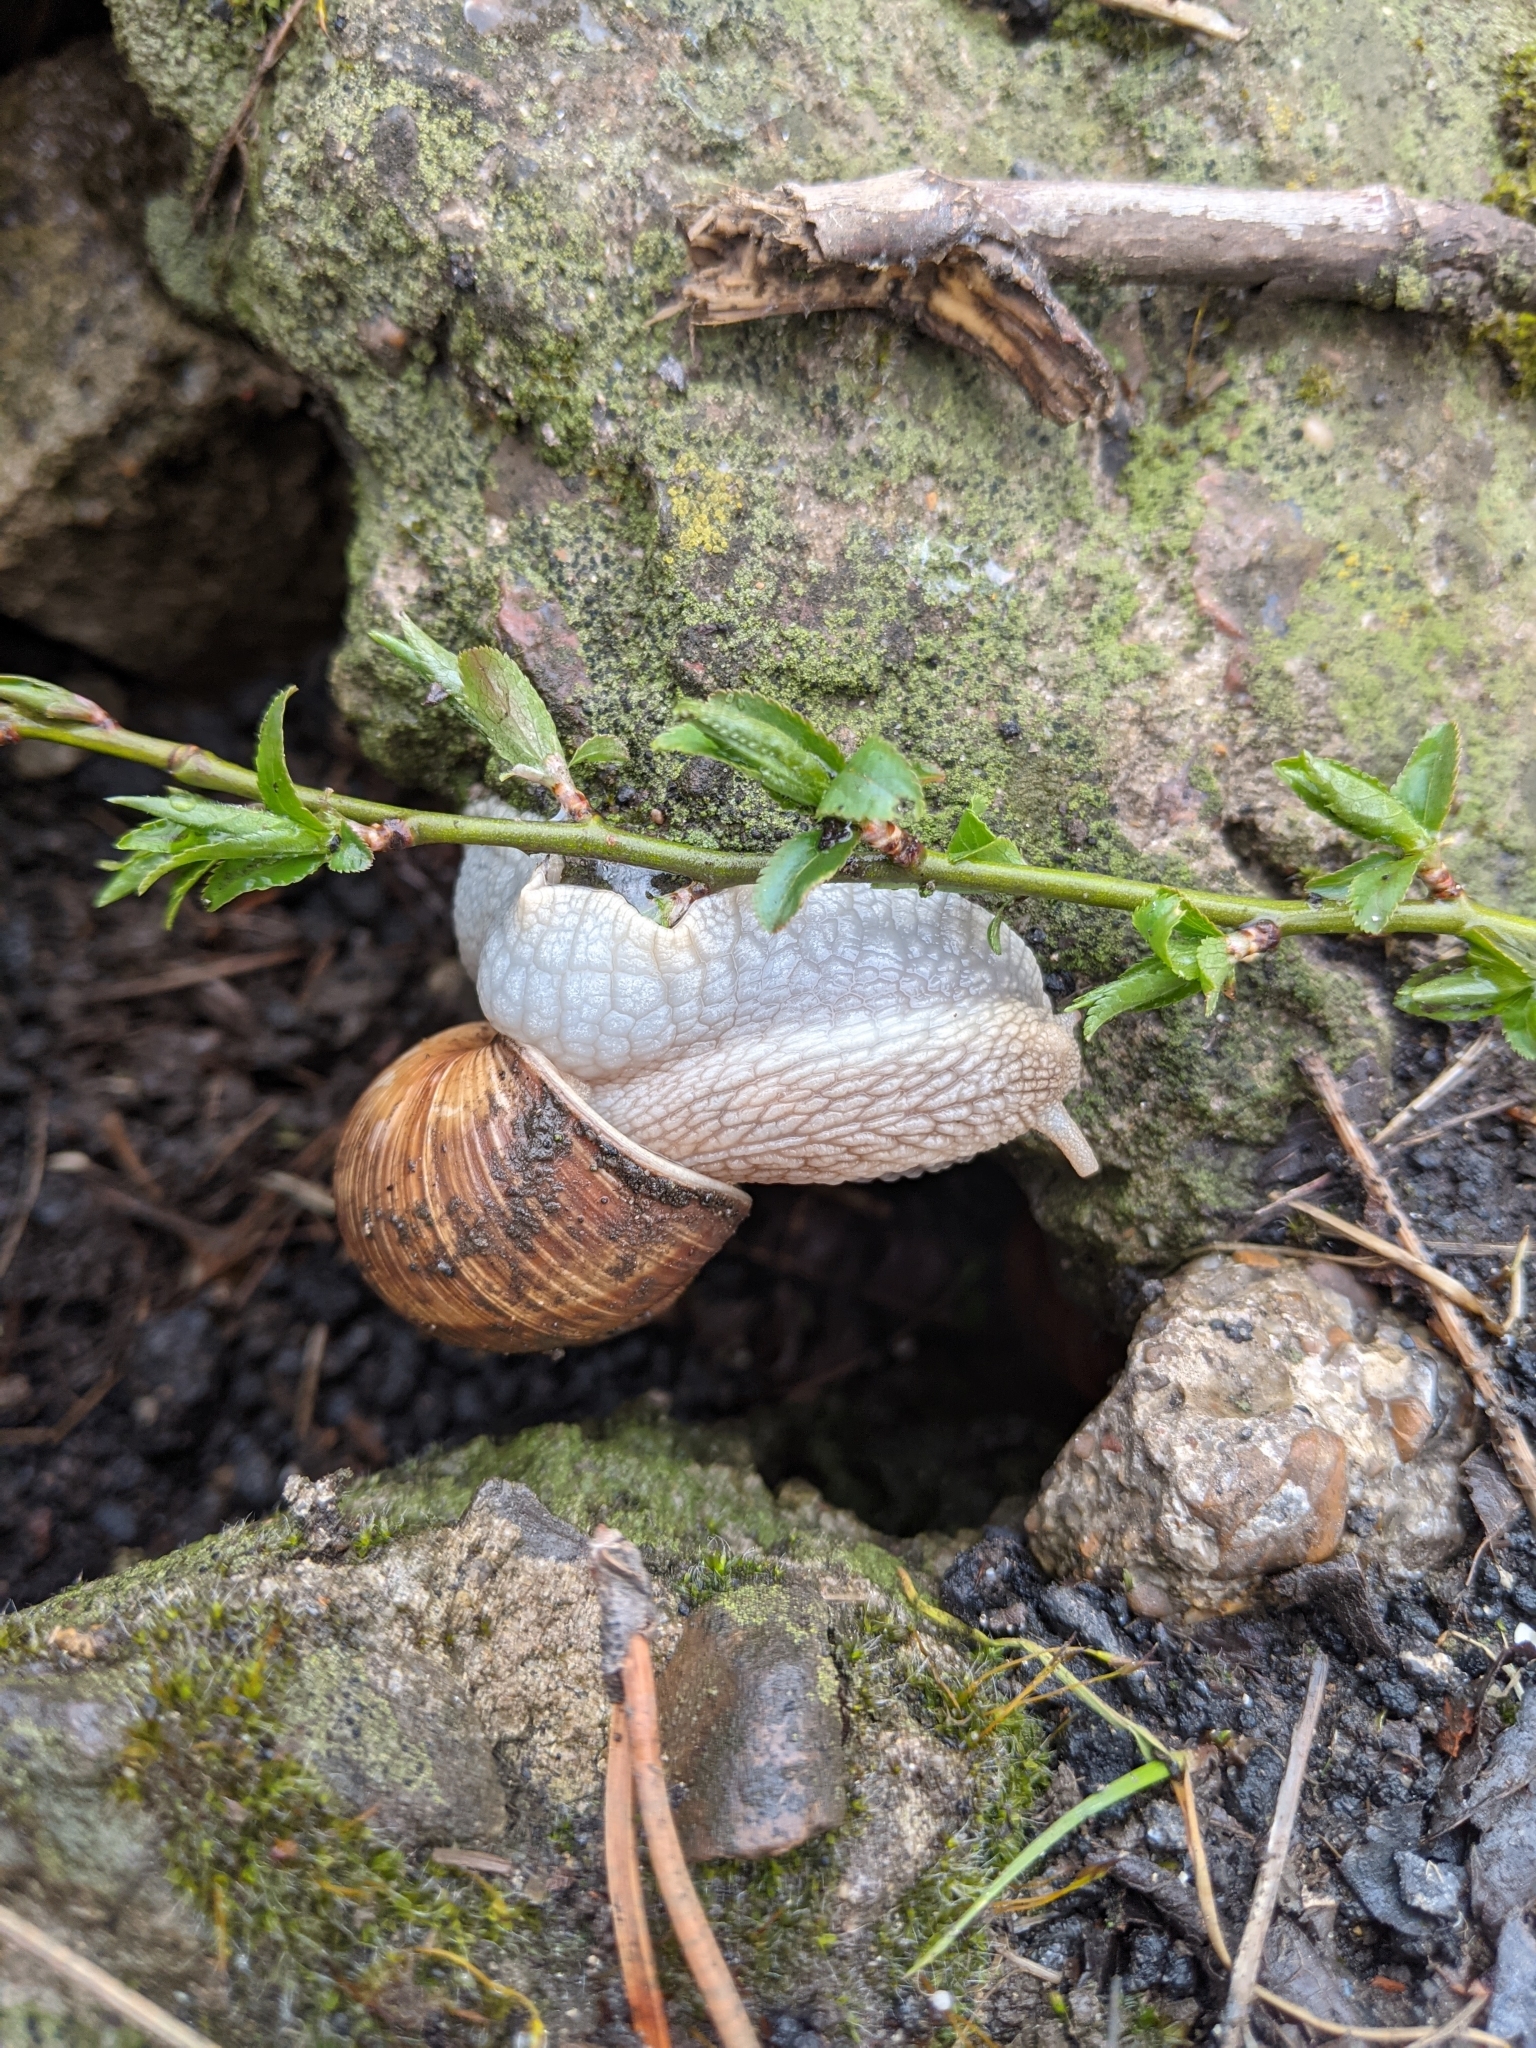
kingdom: Animalia
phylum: Mollusca
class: Gastropoda
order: Stylommatophora
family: Helicidae
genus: Helix
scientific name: Helix pomatia
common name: Roman snail
